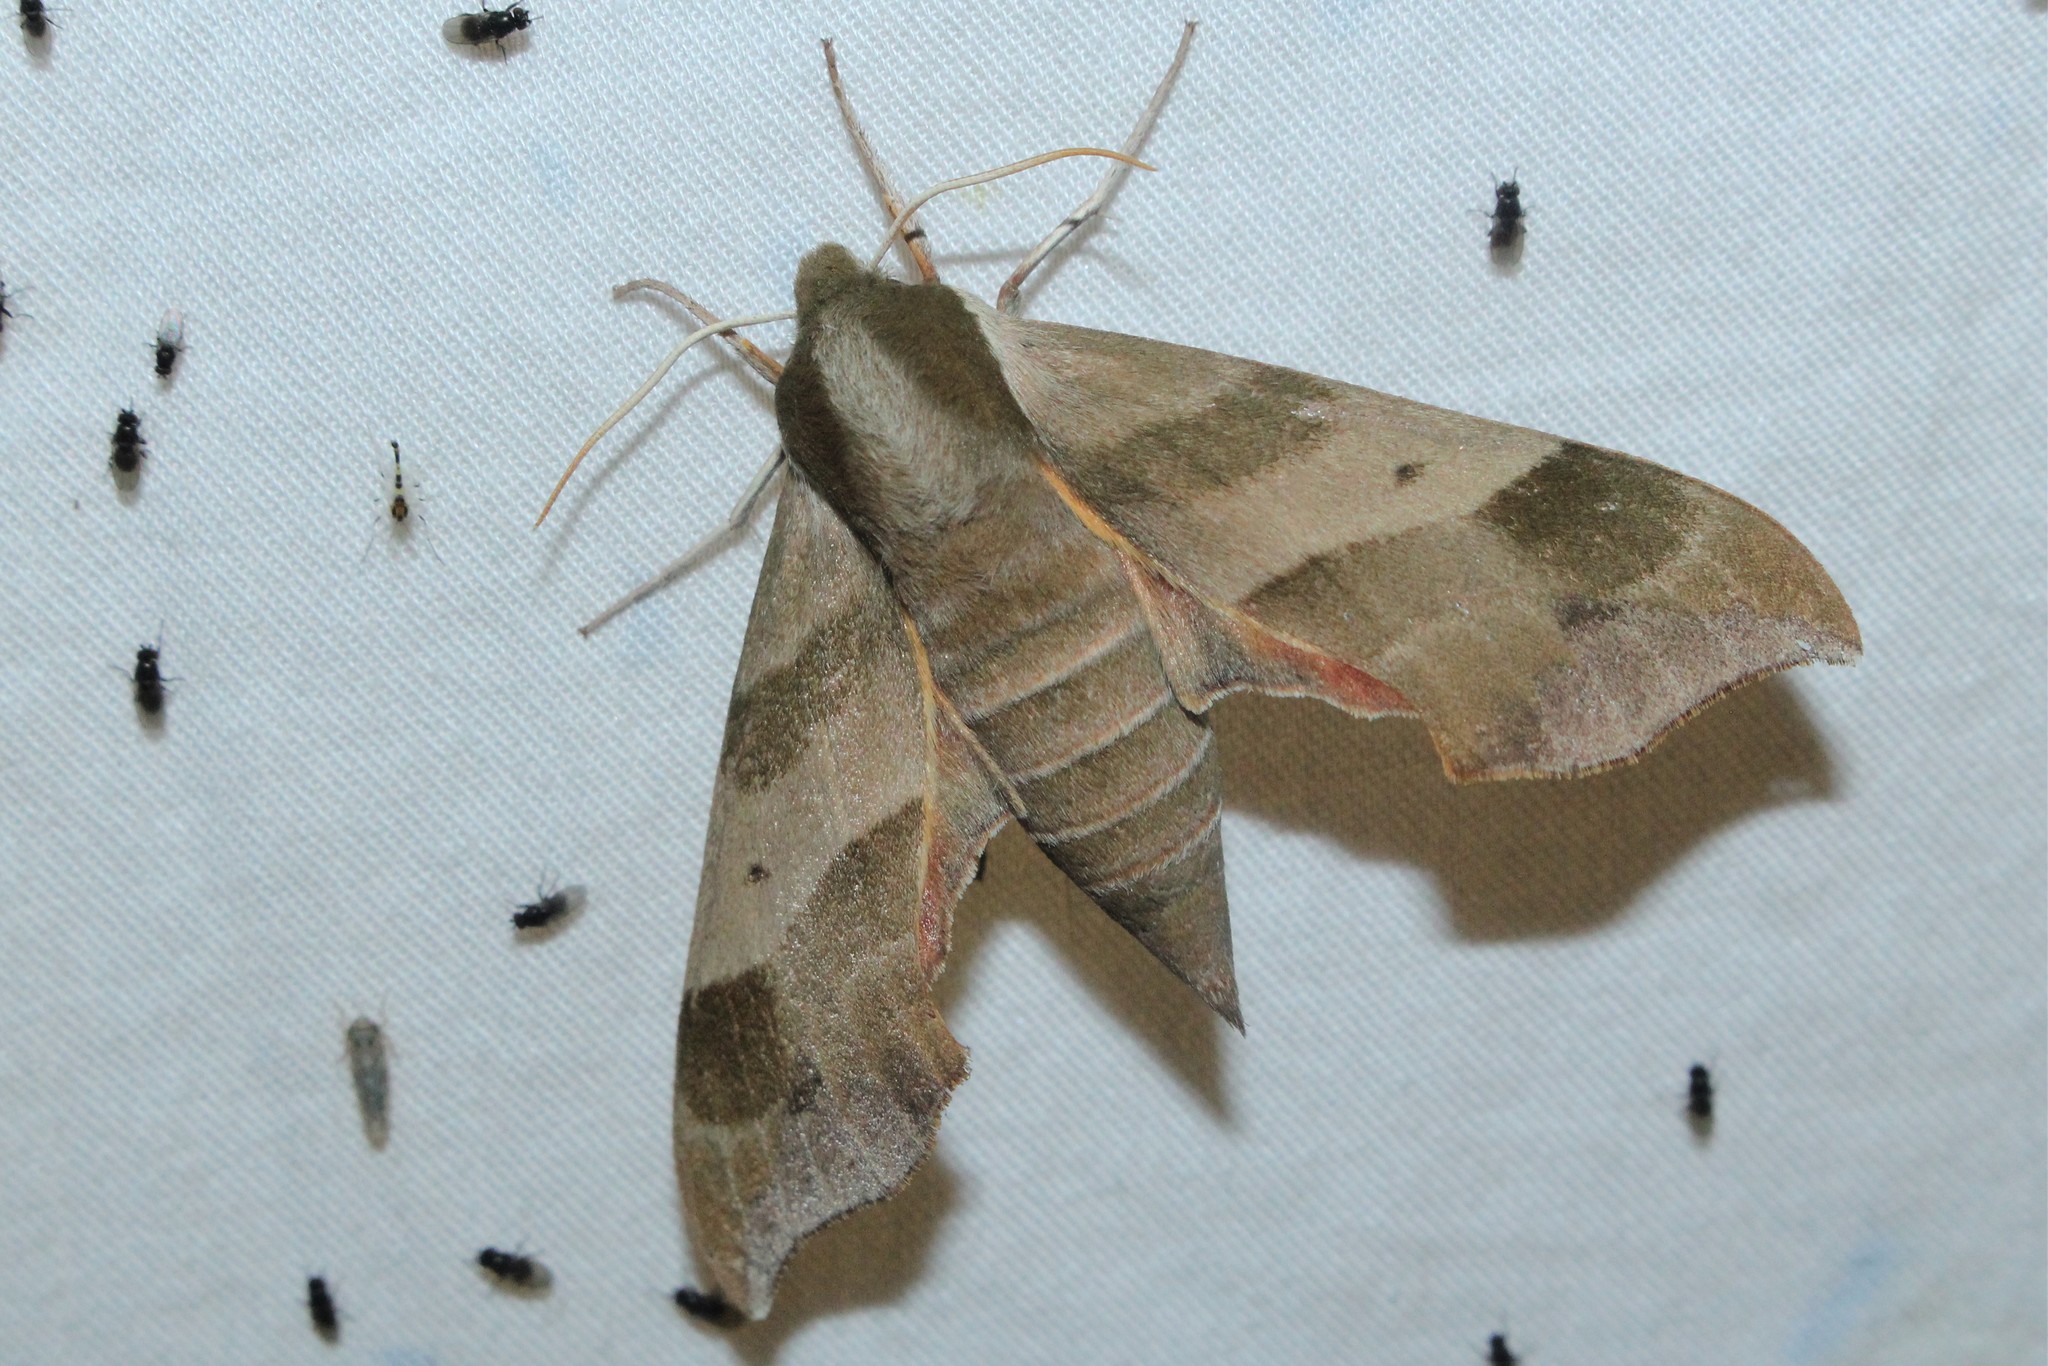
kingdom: Animalia
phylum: Arthropoda
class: Insecta
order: Lepidoptera
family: Sphingidae
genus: Darapsa
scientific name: Darapsa myron
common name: Hog sphinx
